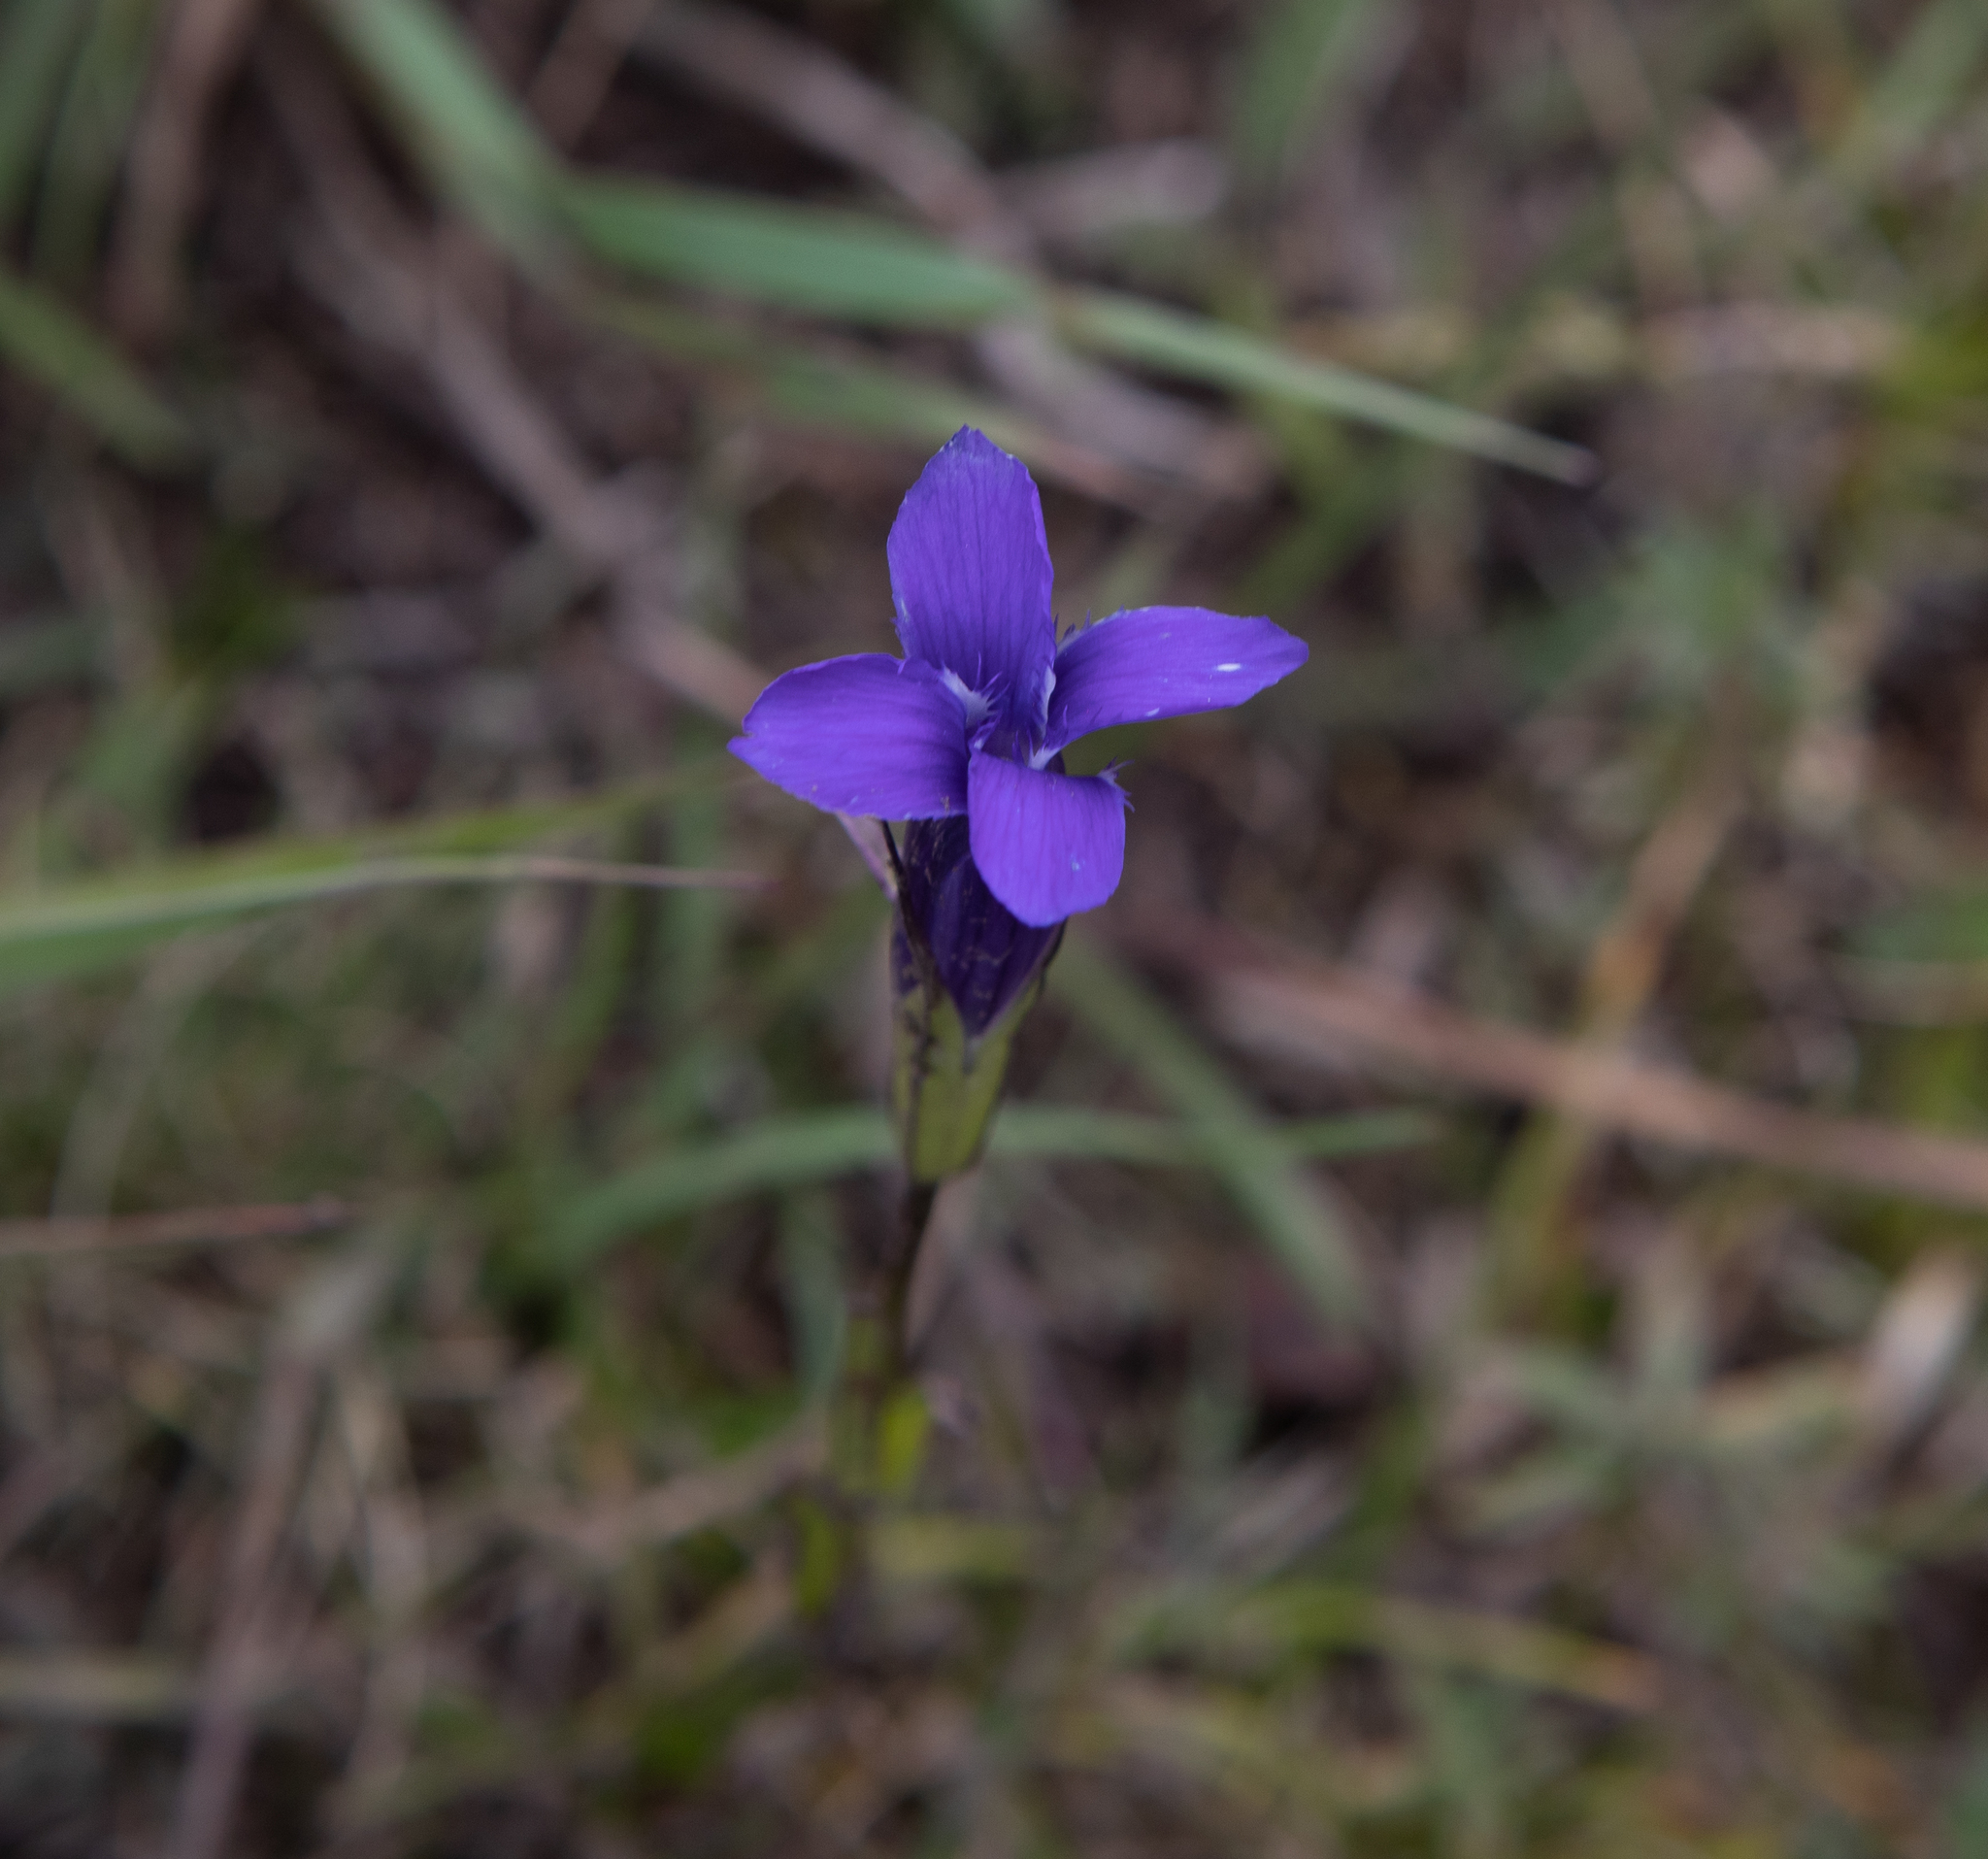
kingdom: Plantae
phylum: Tracheophyta
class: Magnoliopsida
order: Gentianales
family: Gentianaceae
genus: Gentianopsis
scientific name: Gentianopsis barbata
